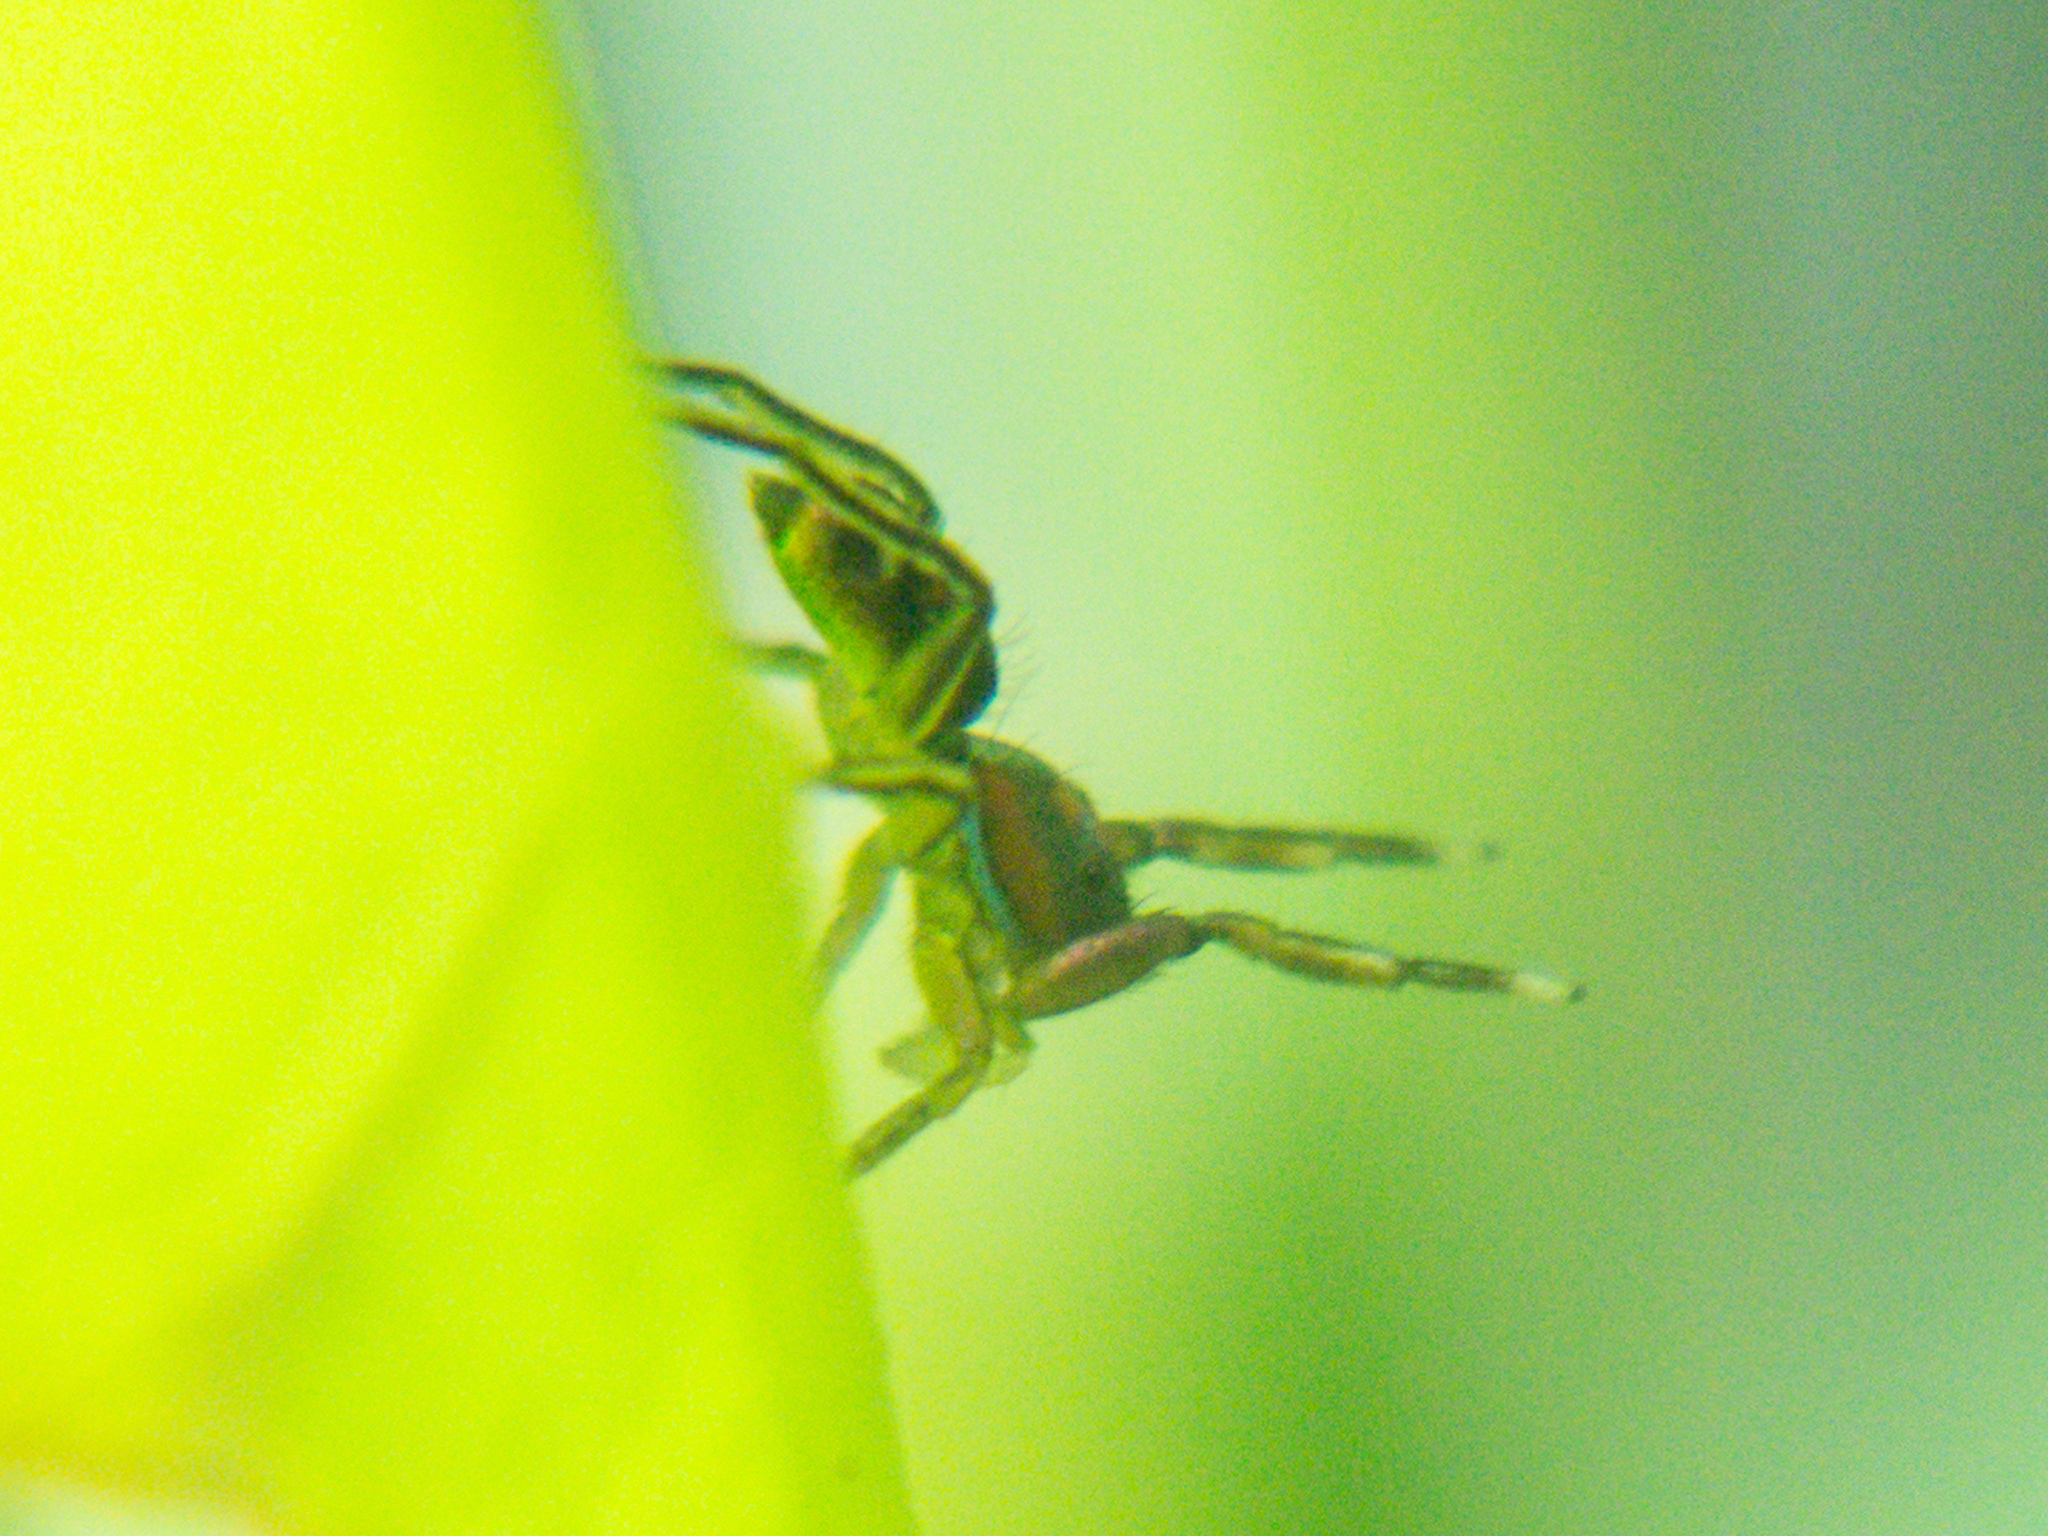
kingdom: Animalia
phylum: Arthropoda
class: Arachnida
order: Araneae
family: Salticidae
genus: Siler
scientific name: Siler semiglaucus
